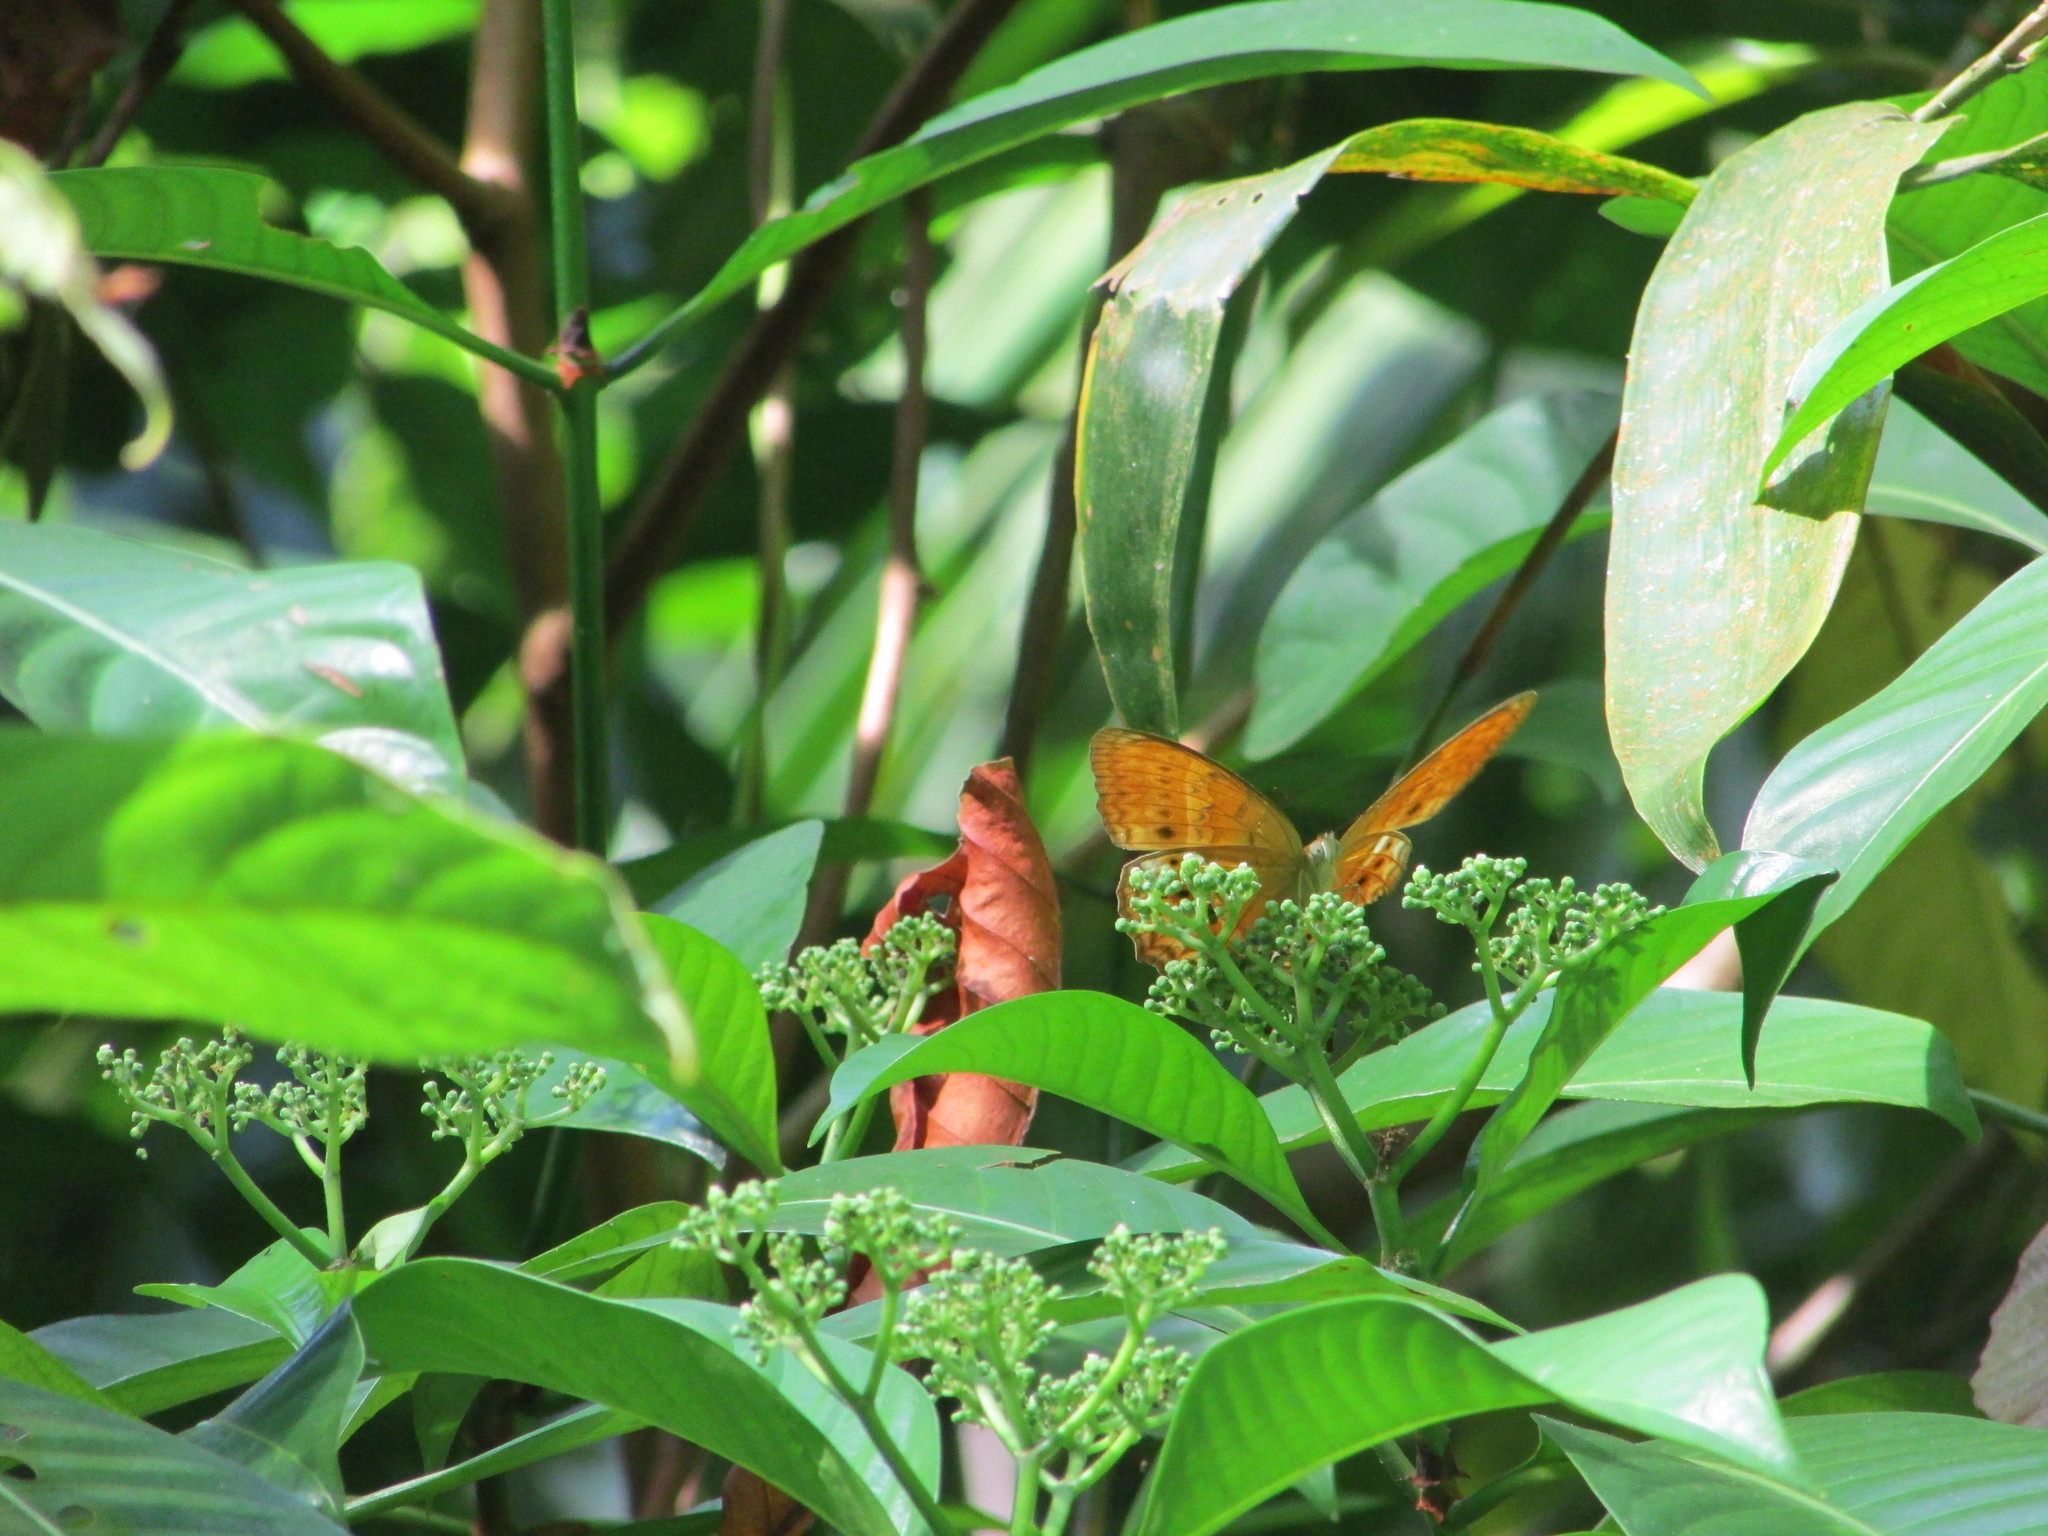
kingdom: Animalia
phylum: Arthropoda
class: Insecta
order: Lepidoptera
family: Nymphalidae
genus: Cirrochroa
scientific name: Cirrochroa aoris
